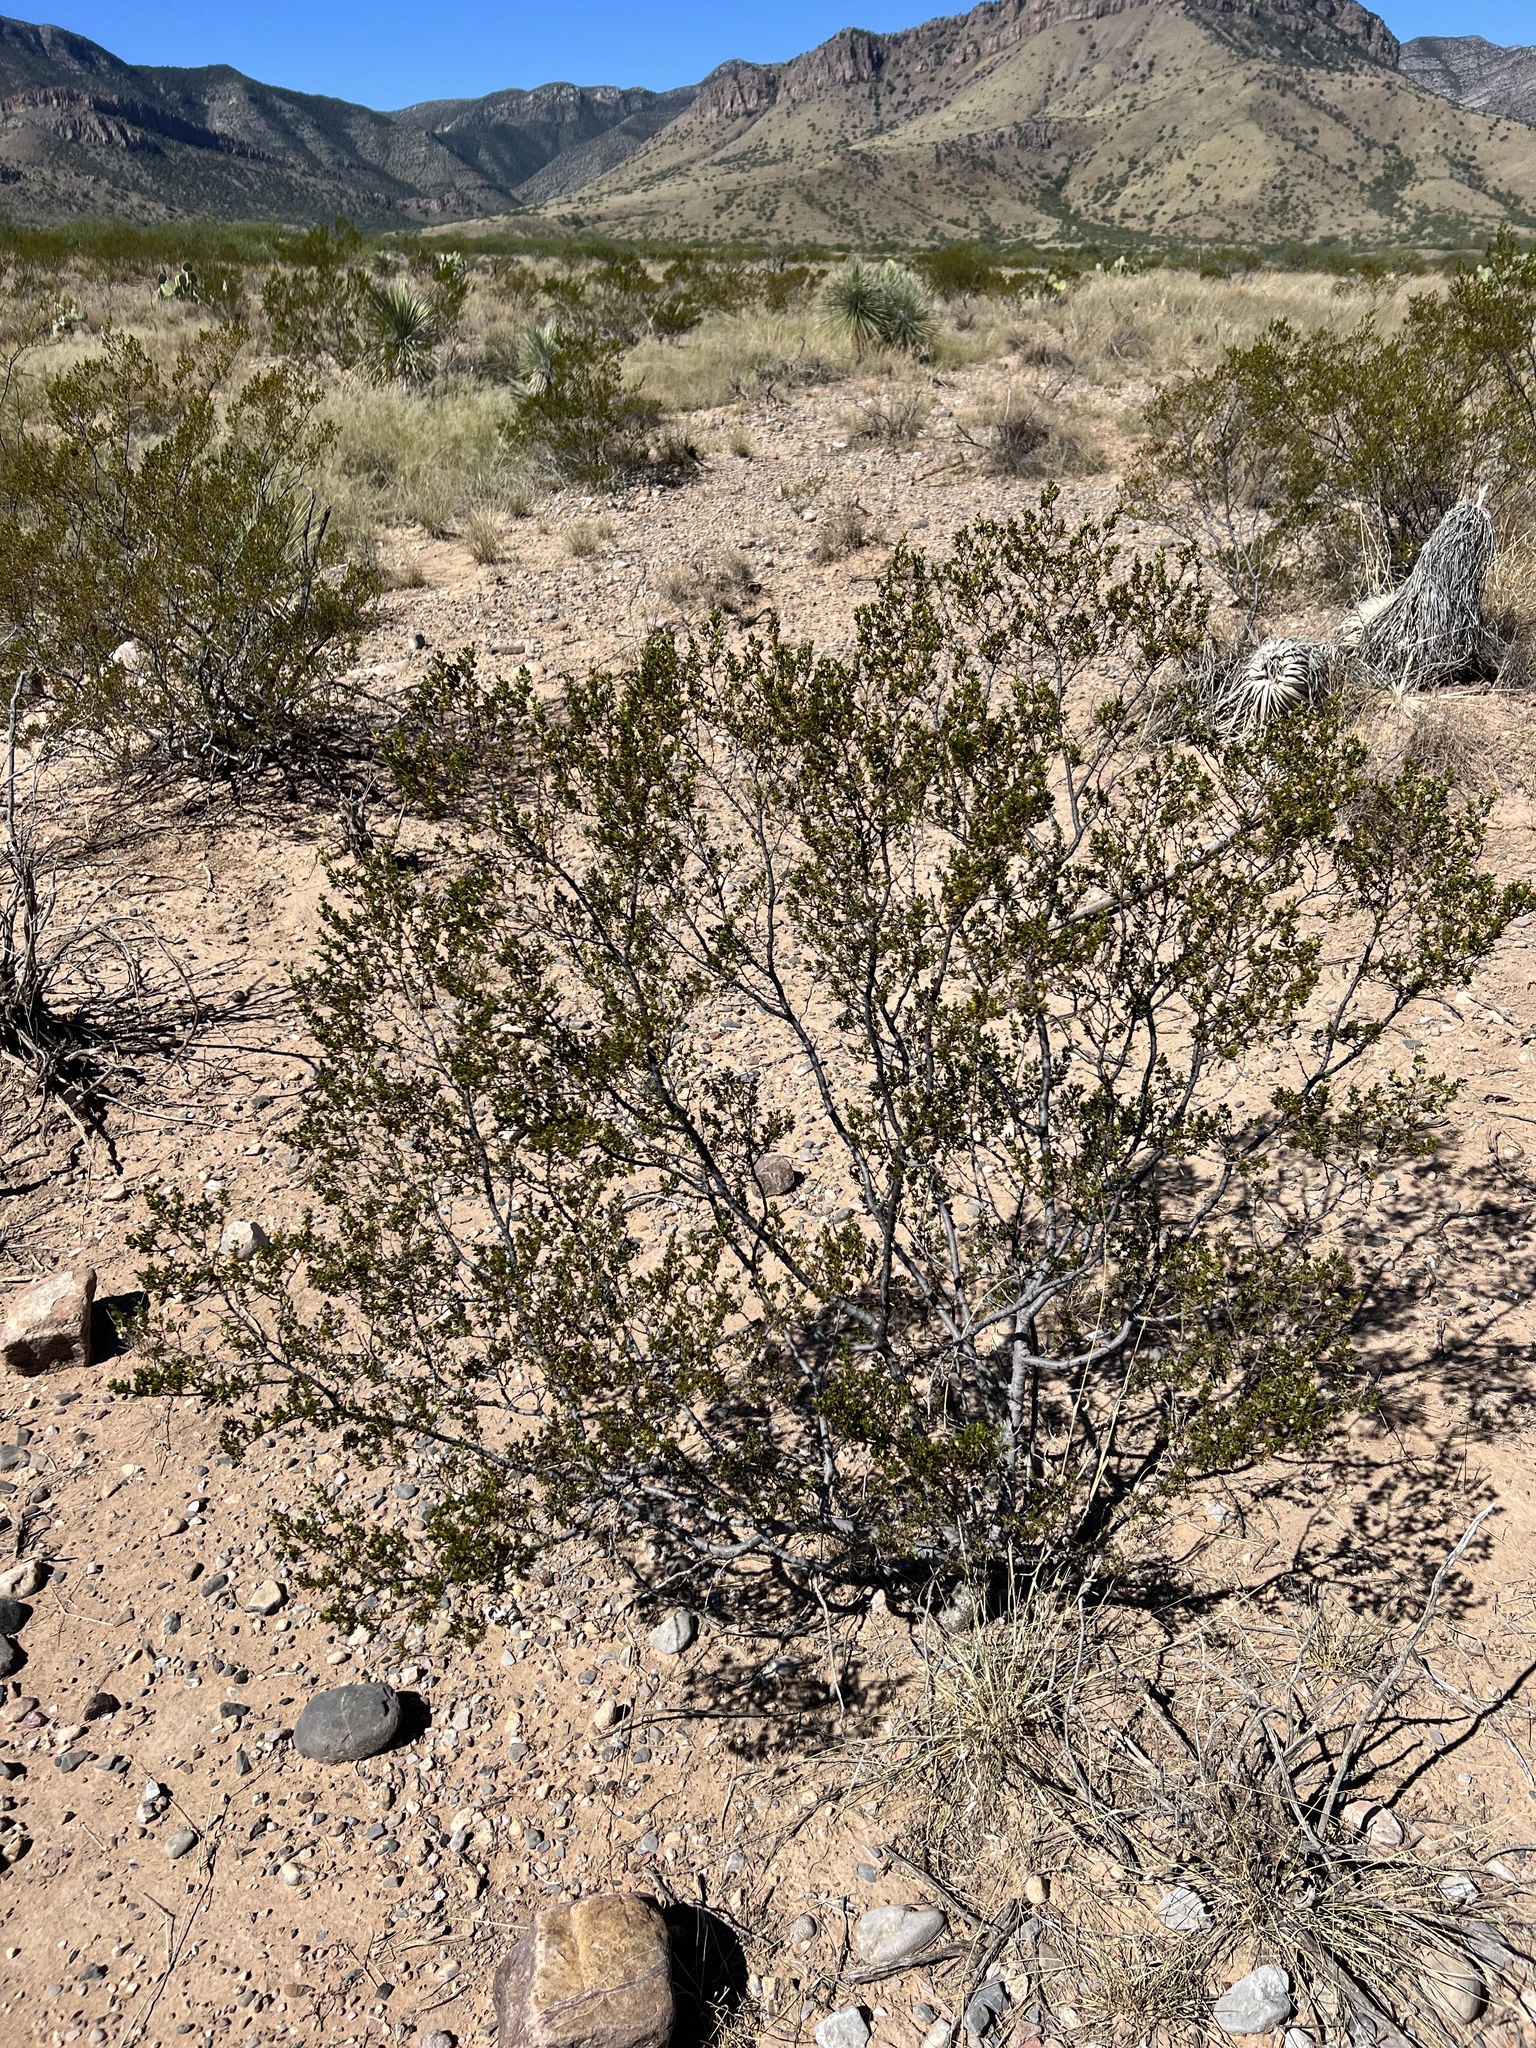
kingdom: Plantae
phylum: Tracheophyta
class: Magnoliopsida
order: Zygophyllales
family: Zygophyllaceae
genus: Larrea
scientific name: Larrea tridentata
